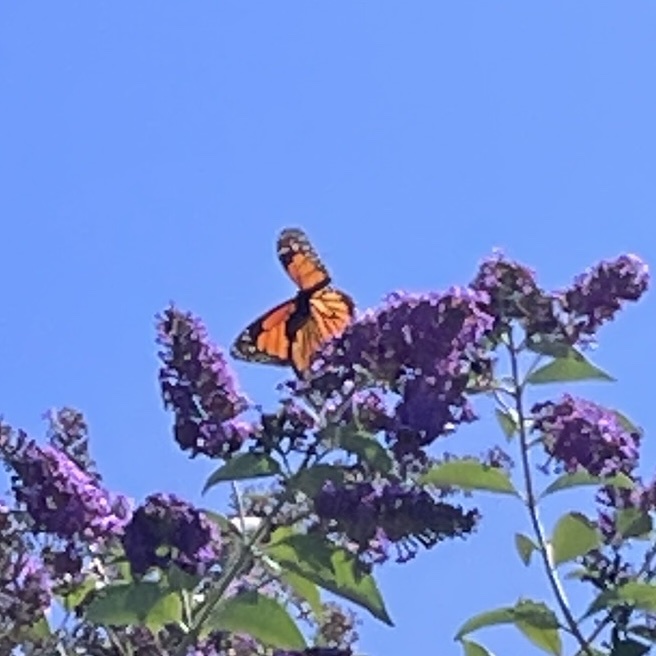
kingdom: Animalia
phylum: Arthropoda
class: Insecta
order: Lepidoptera
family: Nymphalidae
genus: Danaus
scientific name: Danaus plexippus
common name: Monarch
